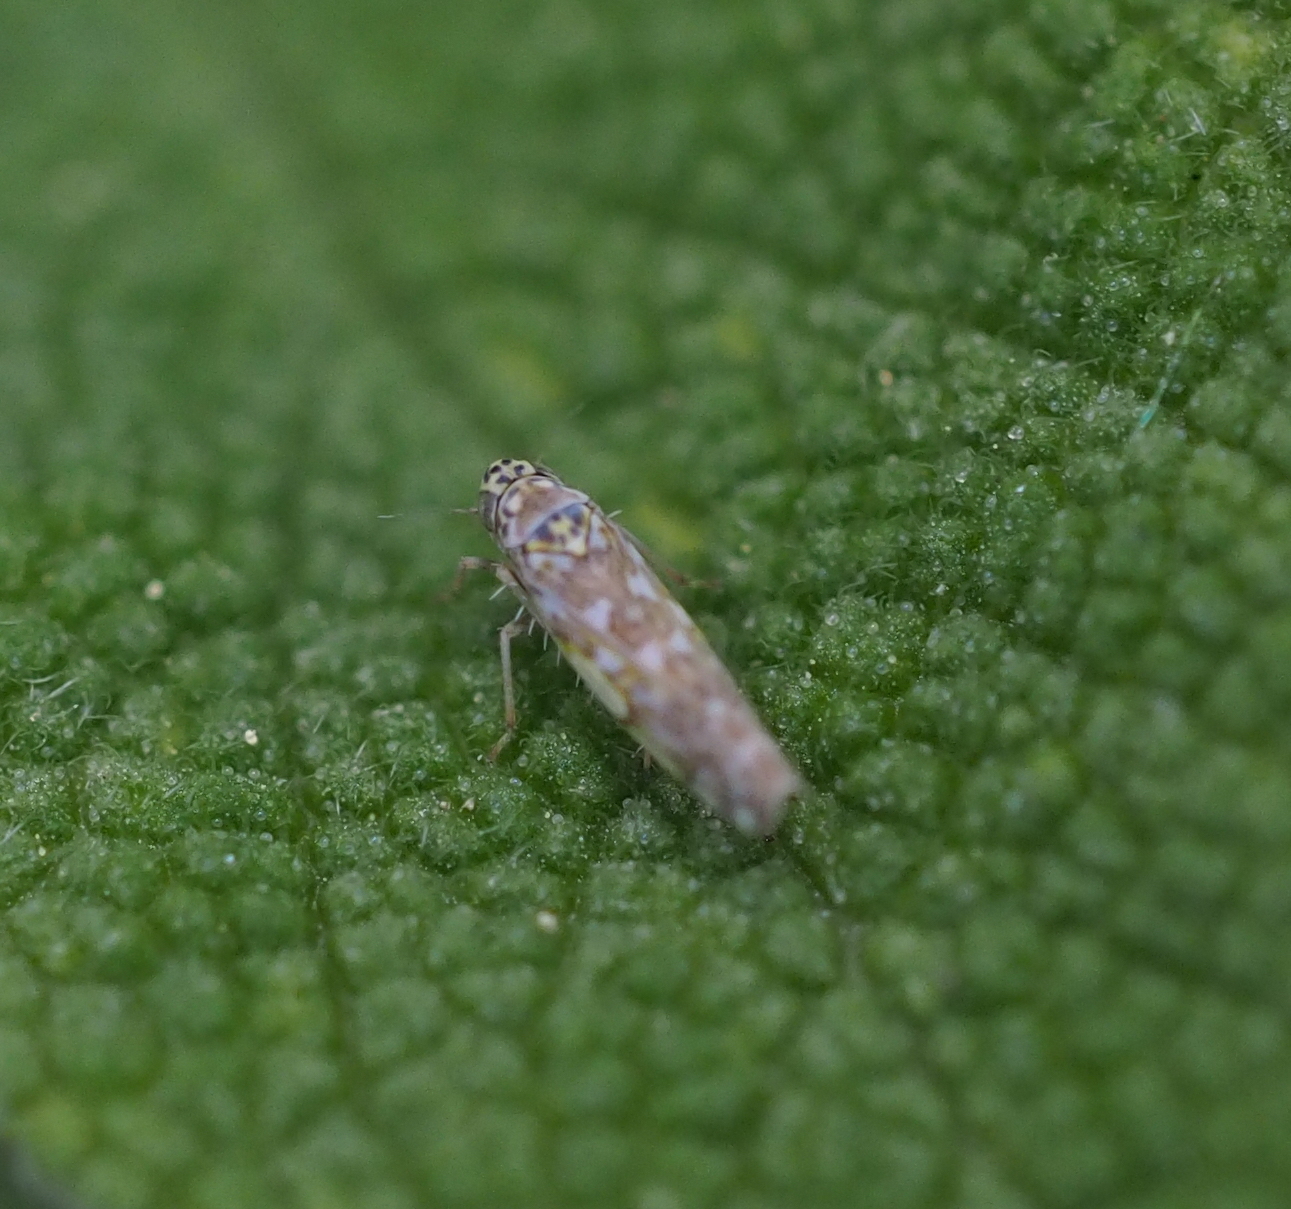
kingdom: Animalia
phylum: Arthropoda
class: Insecta
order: Hemiptera
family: Cicadellidae
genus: Eupteryx
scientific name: Eupteryx decemnotata
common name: Ligurian leafhopper
